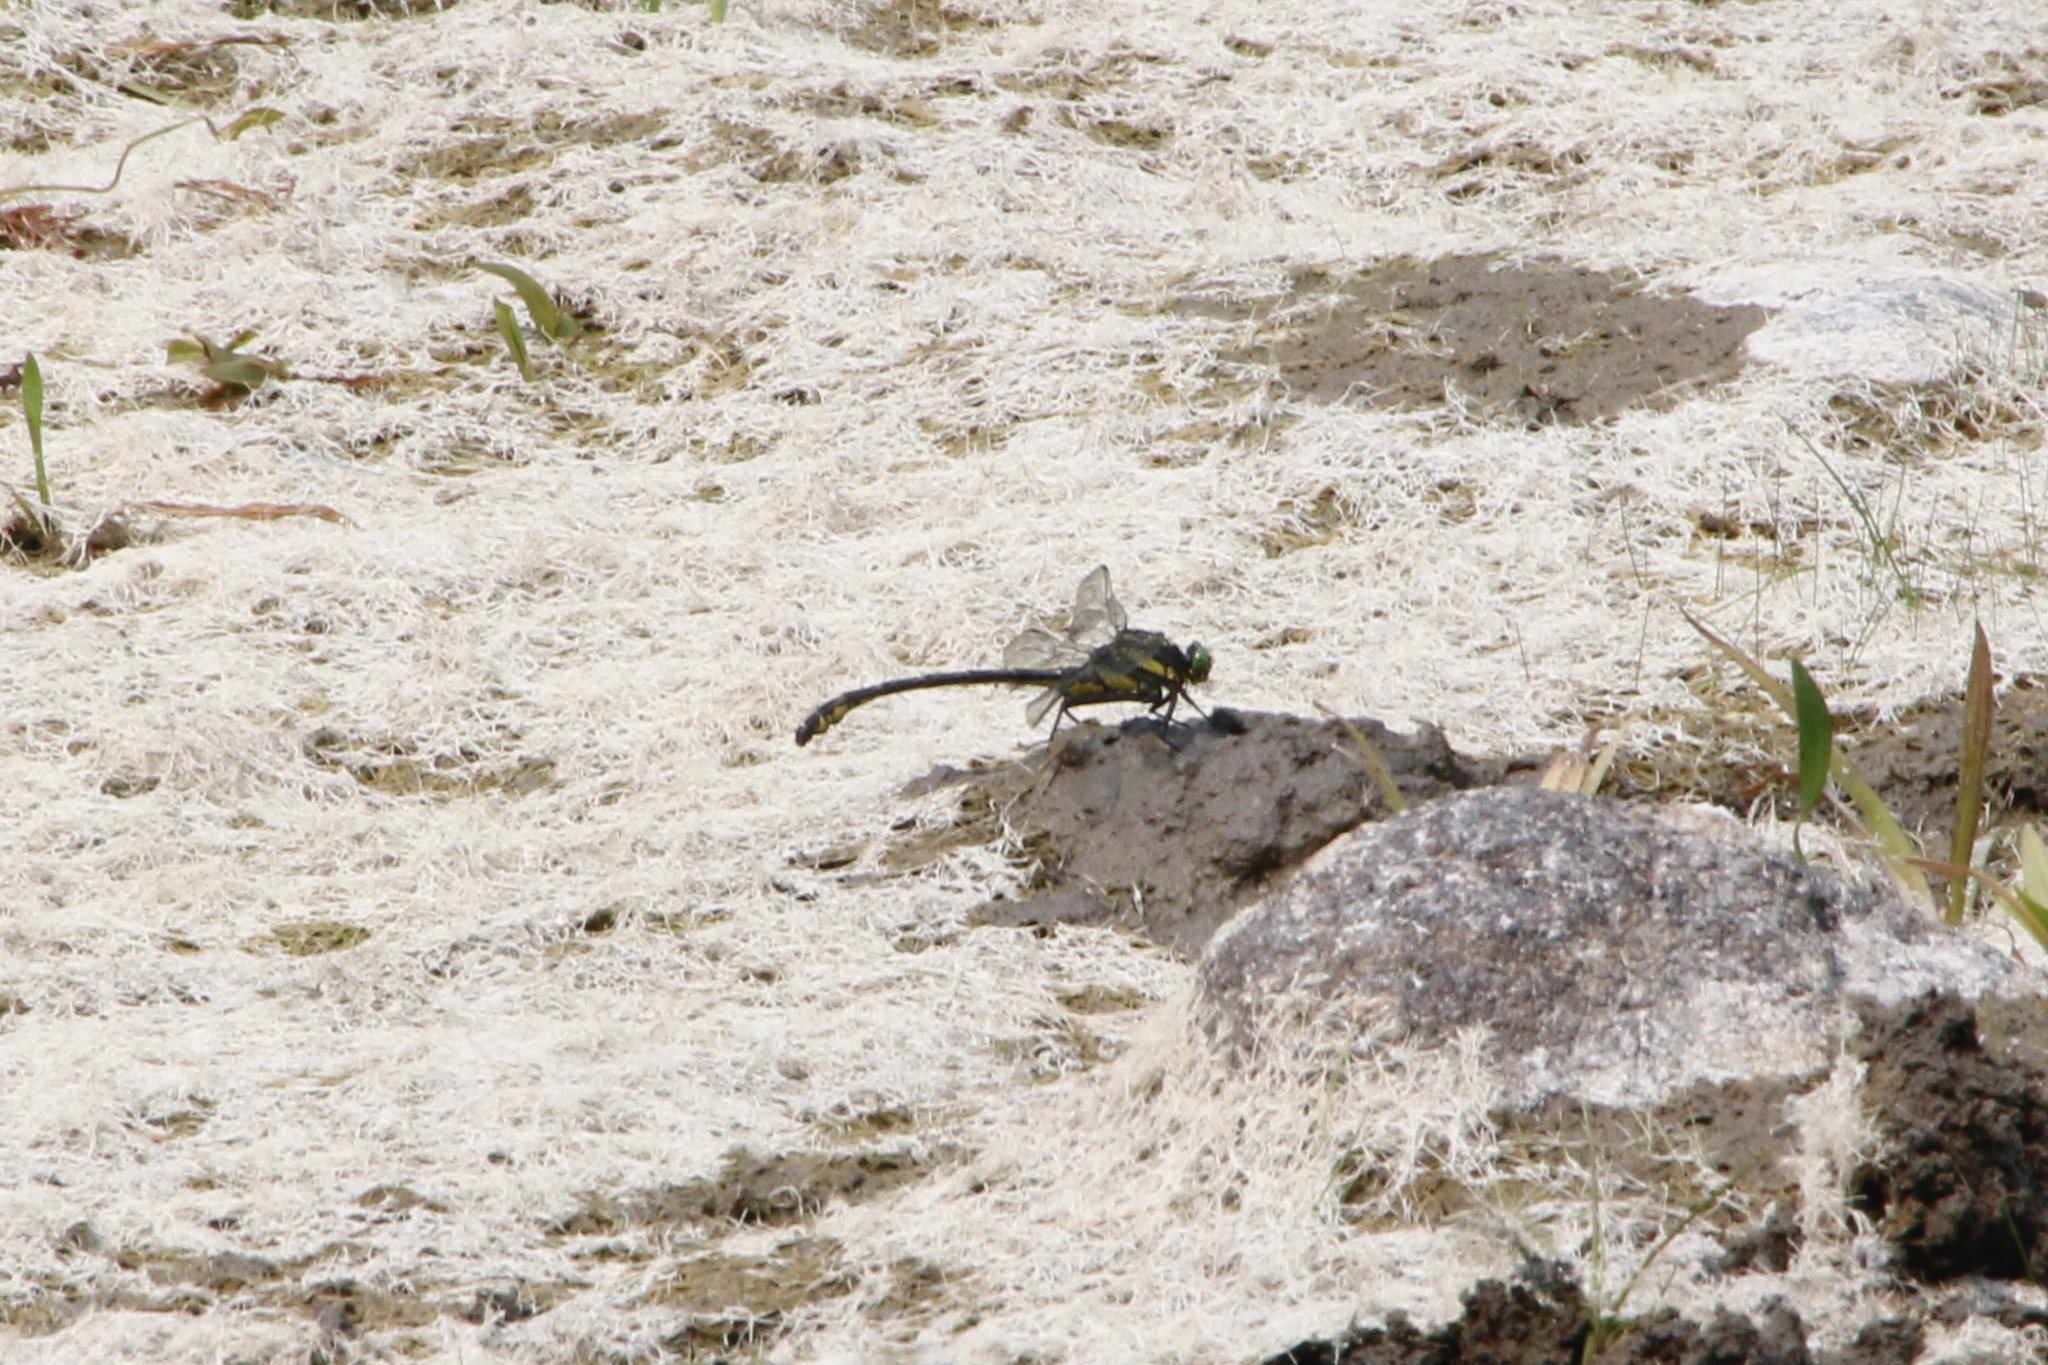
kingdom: Animalia
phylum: Arthropoda
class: Insecta
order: Odonata
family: Gomphidae
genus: Hagenius
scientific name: Hagenius brevistylus
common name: Dragonhunter
